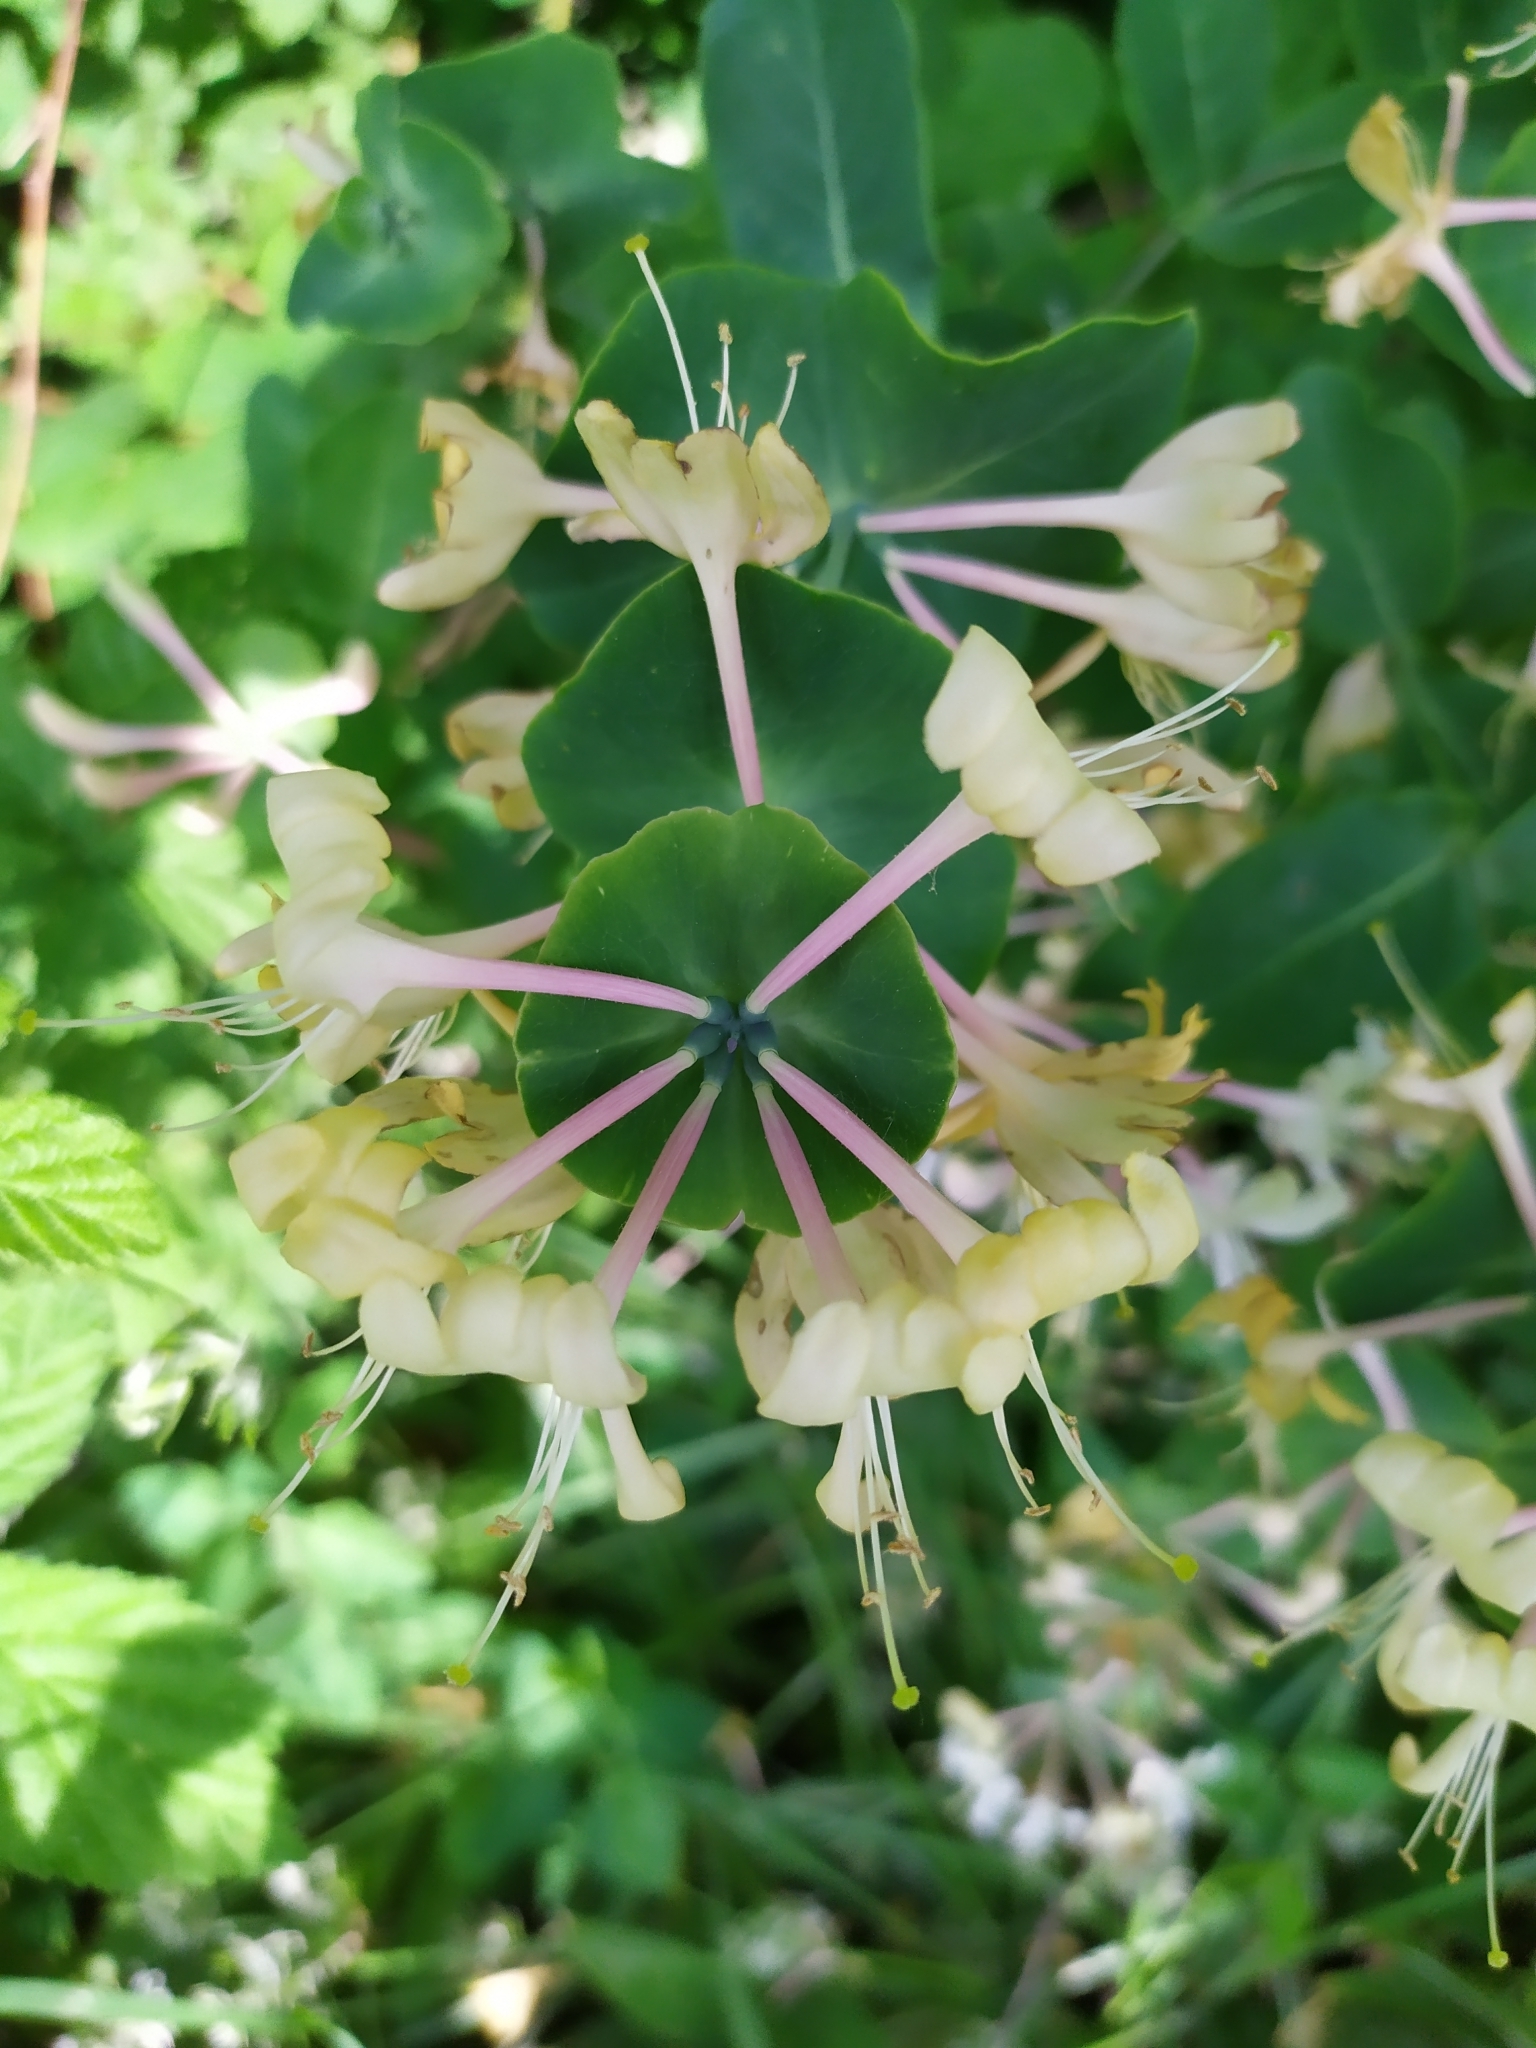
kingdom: Plantae
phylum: Tracheophyta
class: Magnoliopsida
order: Dipsacales
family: Caprifoliaceae
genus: Lonicera
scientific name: Lonicera caprifolium
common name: Perfoliate honeysuckle
